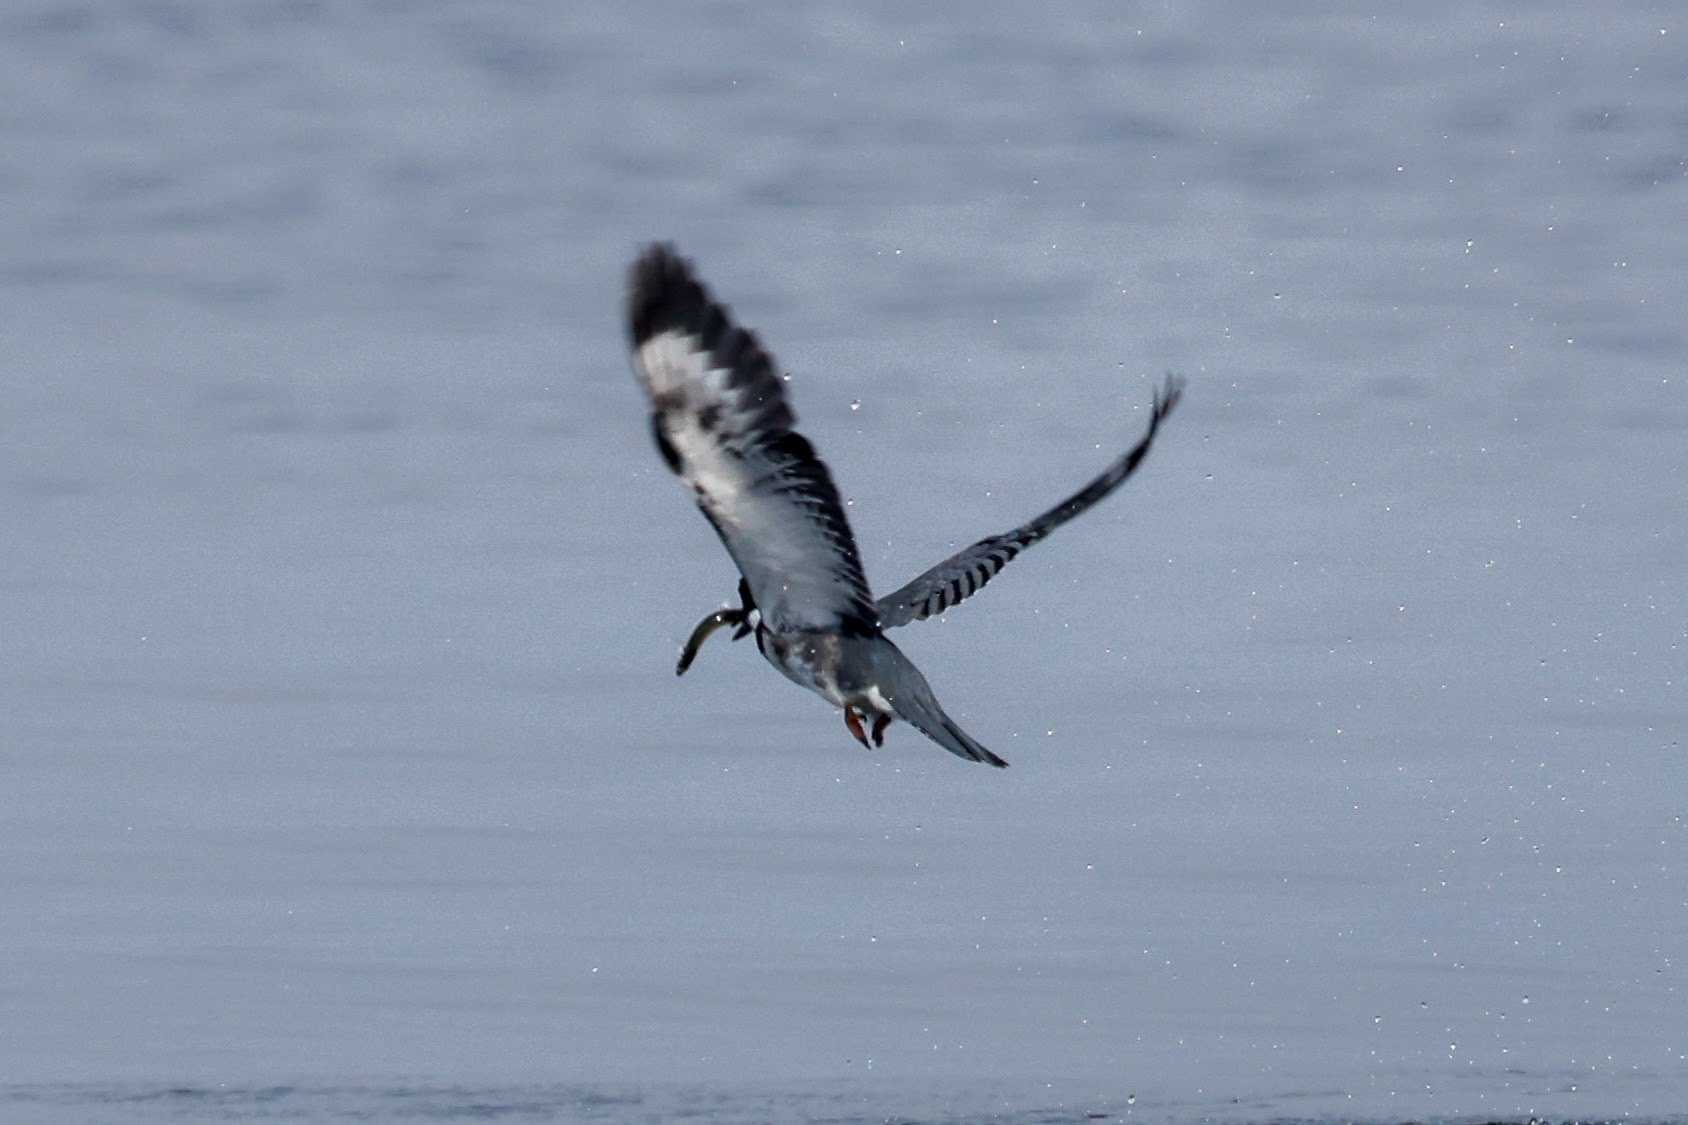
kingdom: Animalia
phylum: Chordata
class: Aves
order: Coraciiformes
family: Alcedinidae
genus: Megaceryle
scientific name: Megaceryle alcyon
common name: Belted kingfisher
